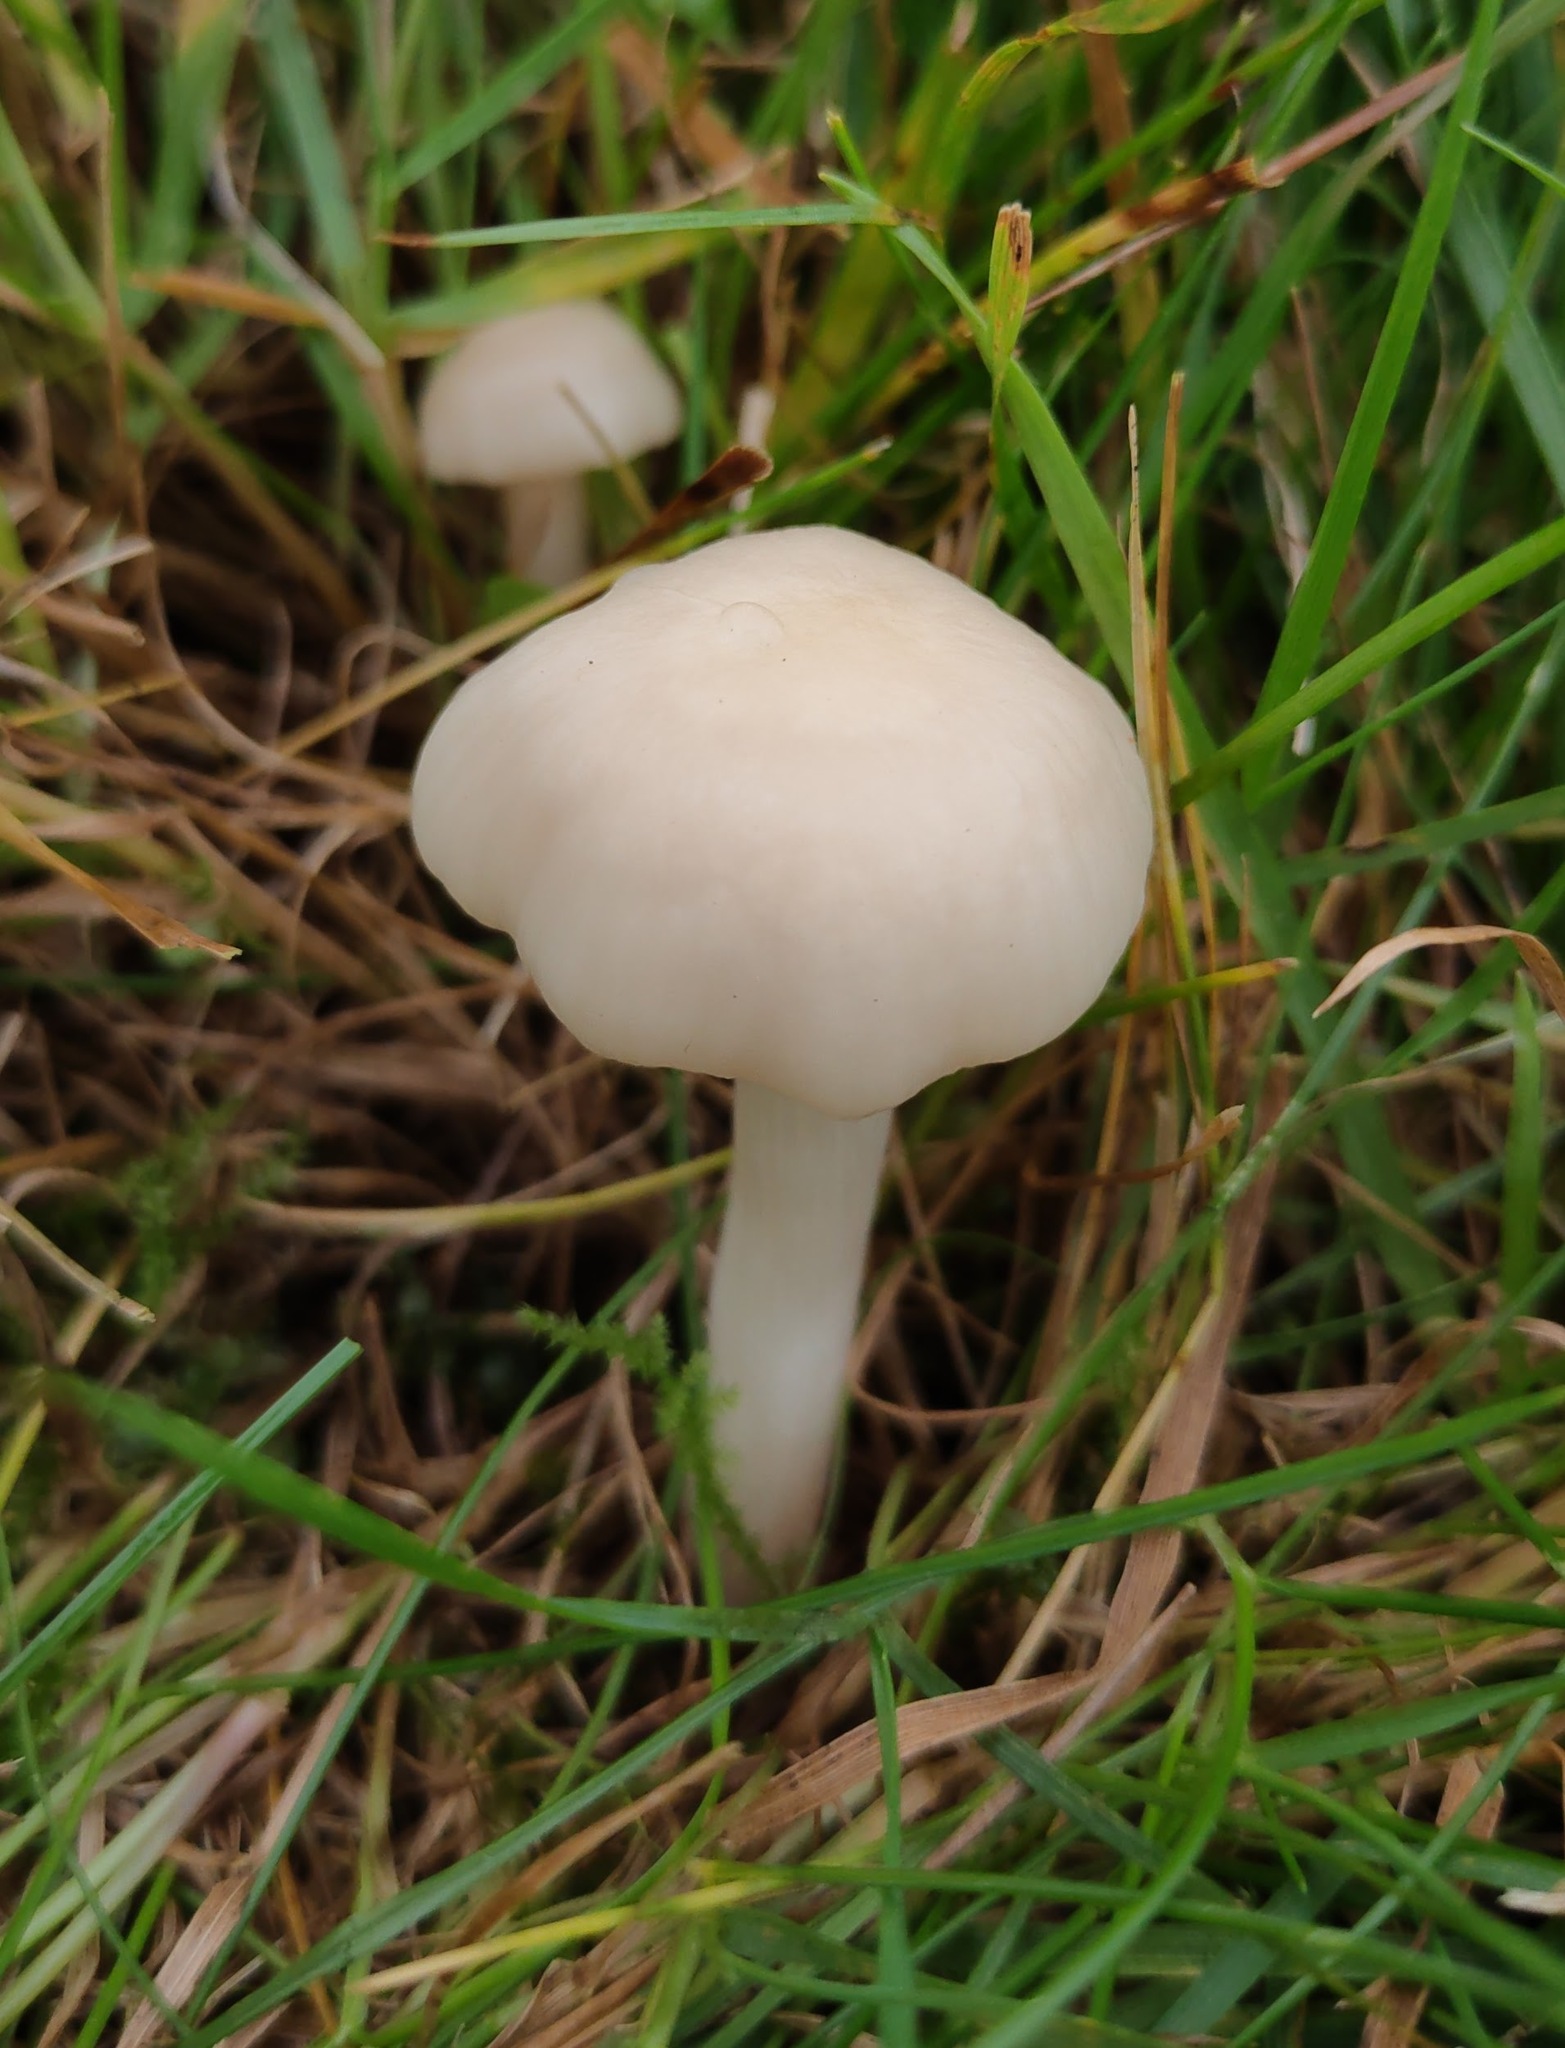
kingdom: Fungi
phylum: Basidiomycota
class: Agaricomycetes
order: Agaricales
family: Hygrophoraceae
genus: Cuphophyllus
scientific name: Cuphophyllus virgineus
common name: Snowy waxcap
